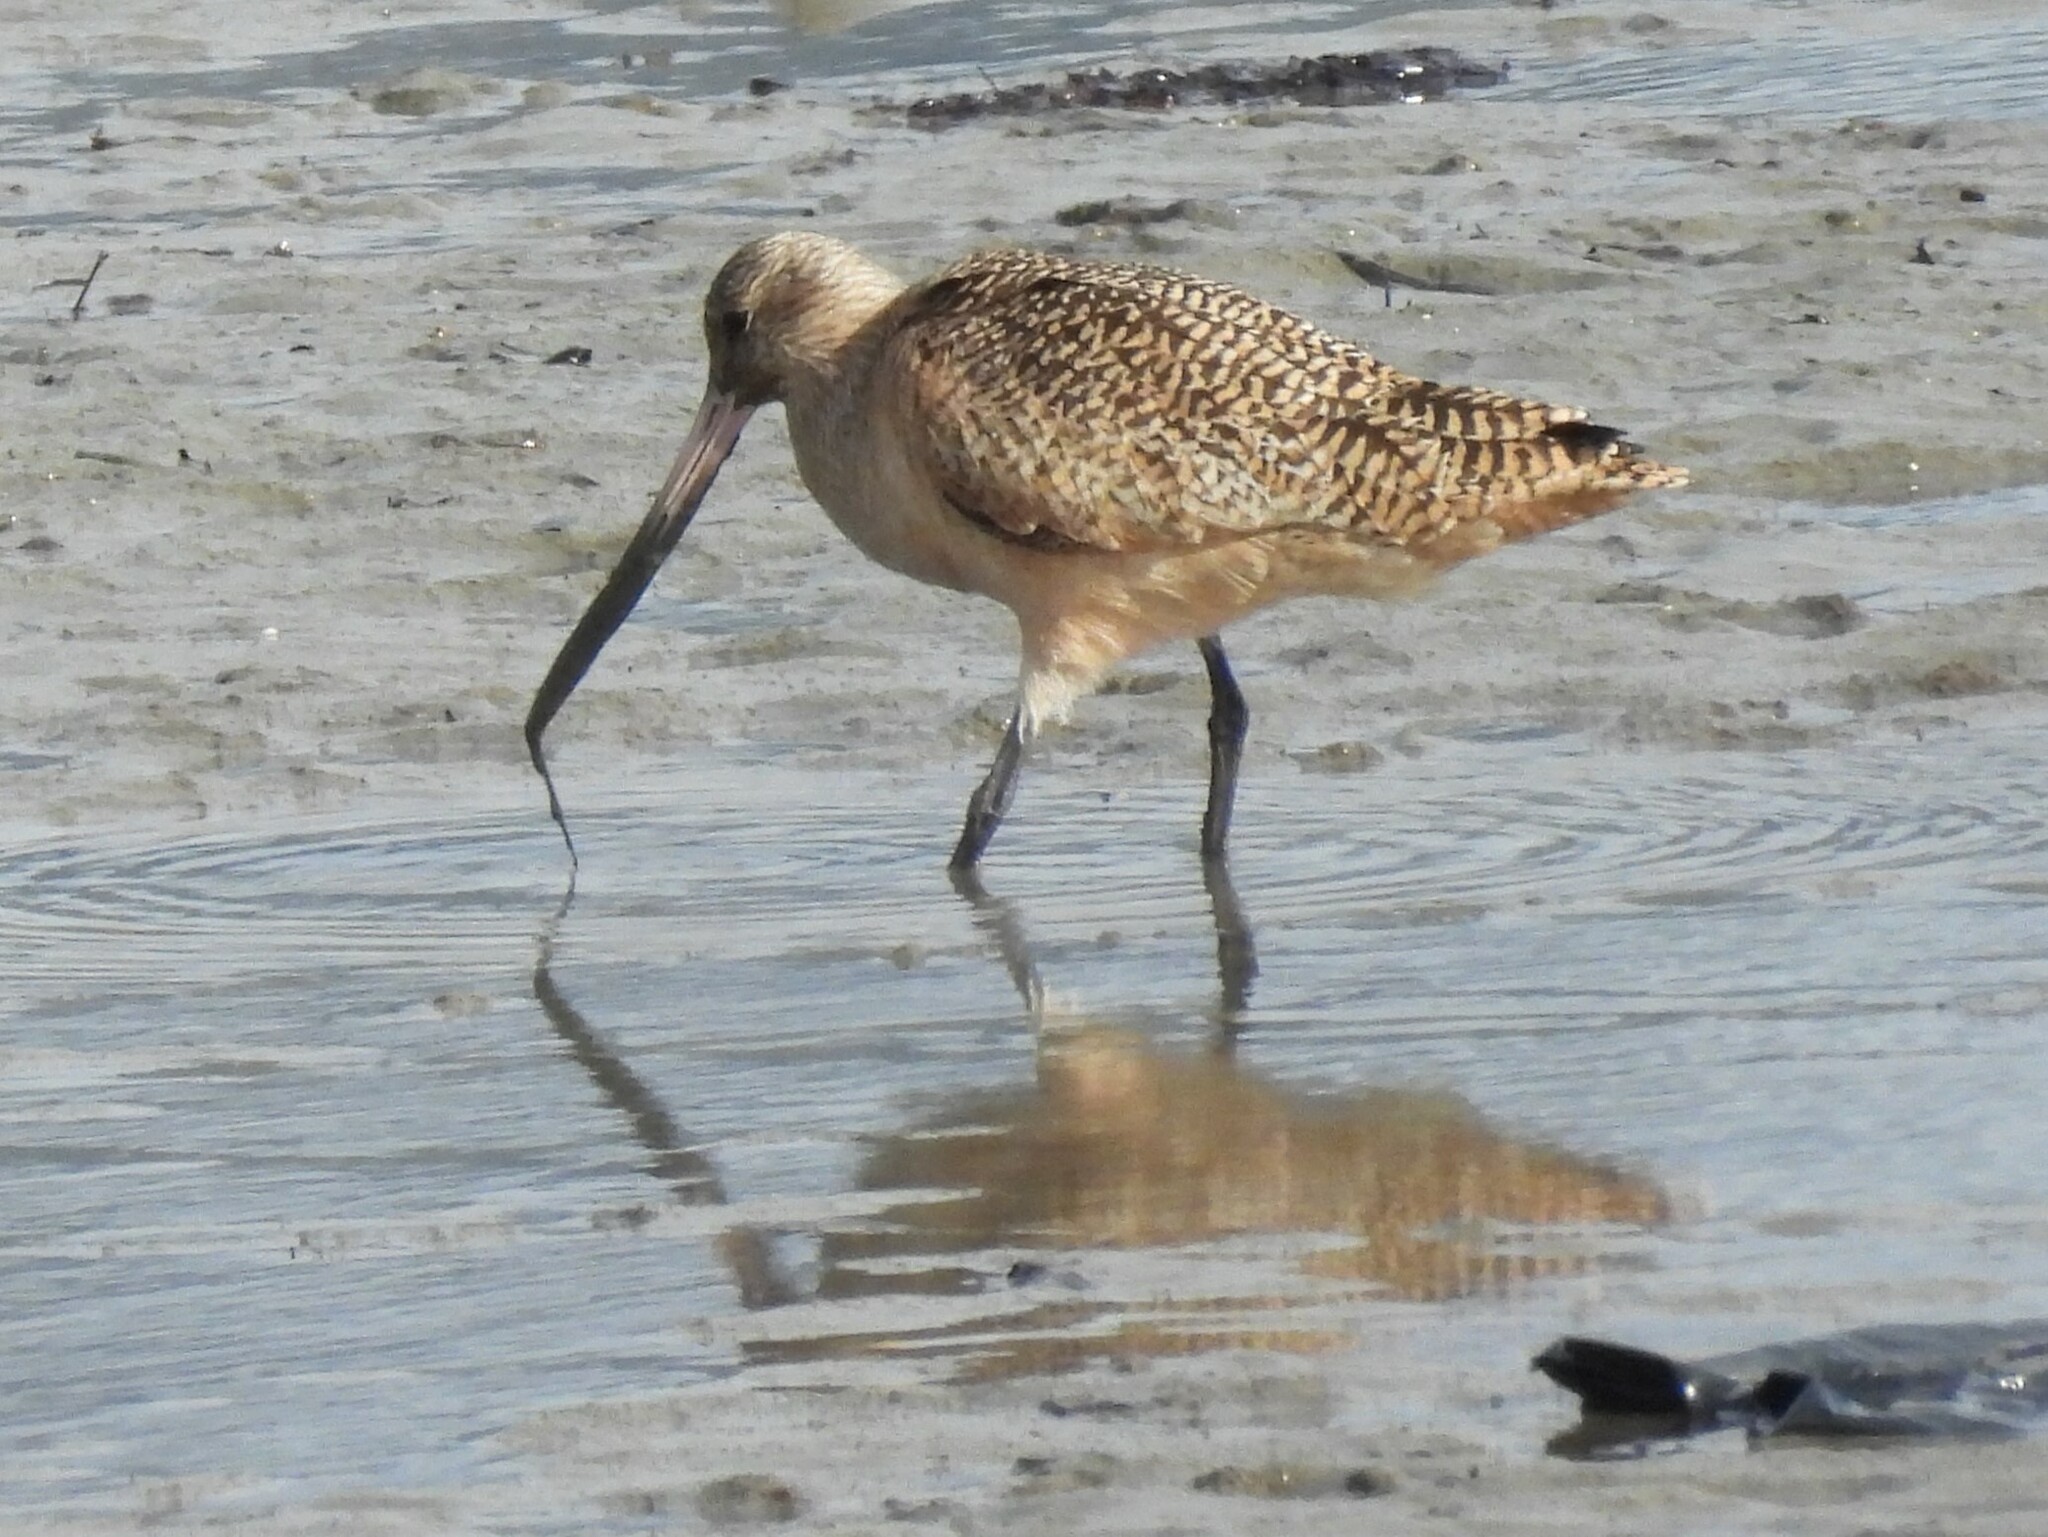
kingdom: Animalia
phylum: Chordata
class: Aves
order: Charadriiformes
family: Scolopacidae
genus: Limosa
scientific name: Limosa fedoa
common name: Marbled godwit
